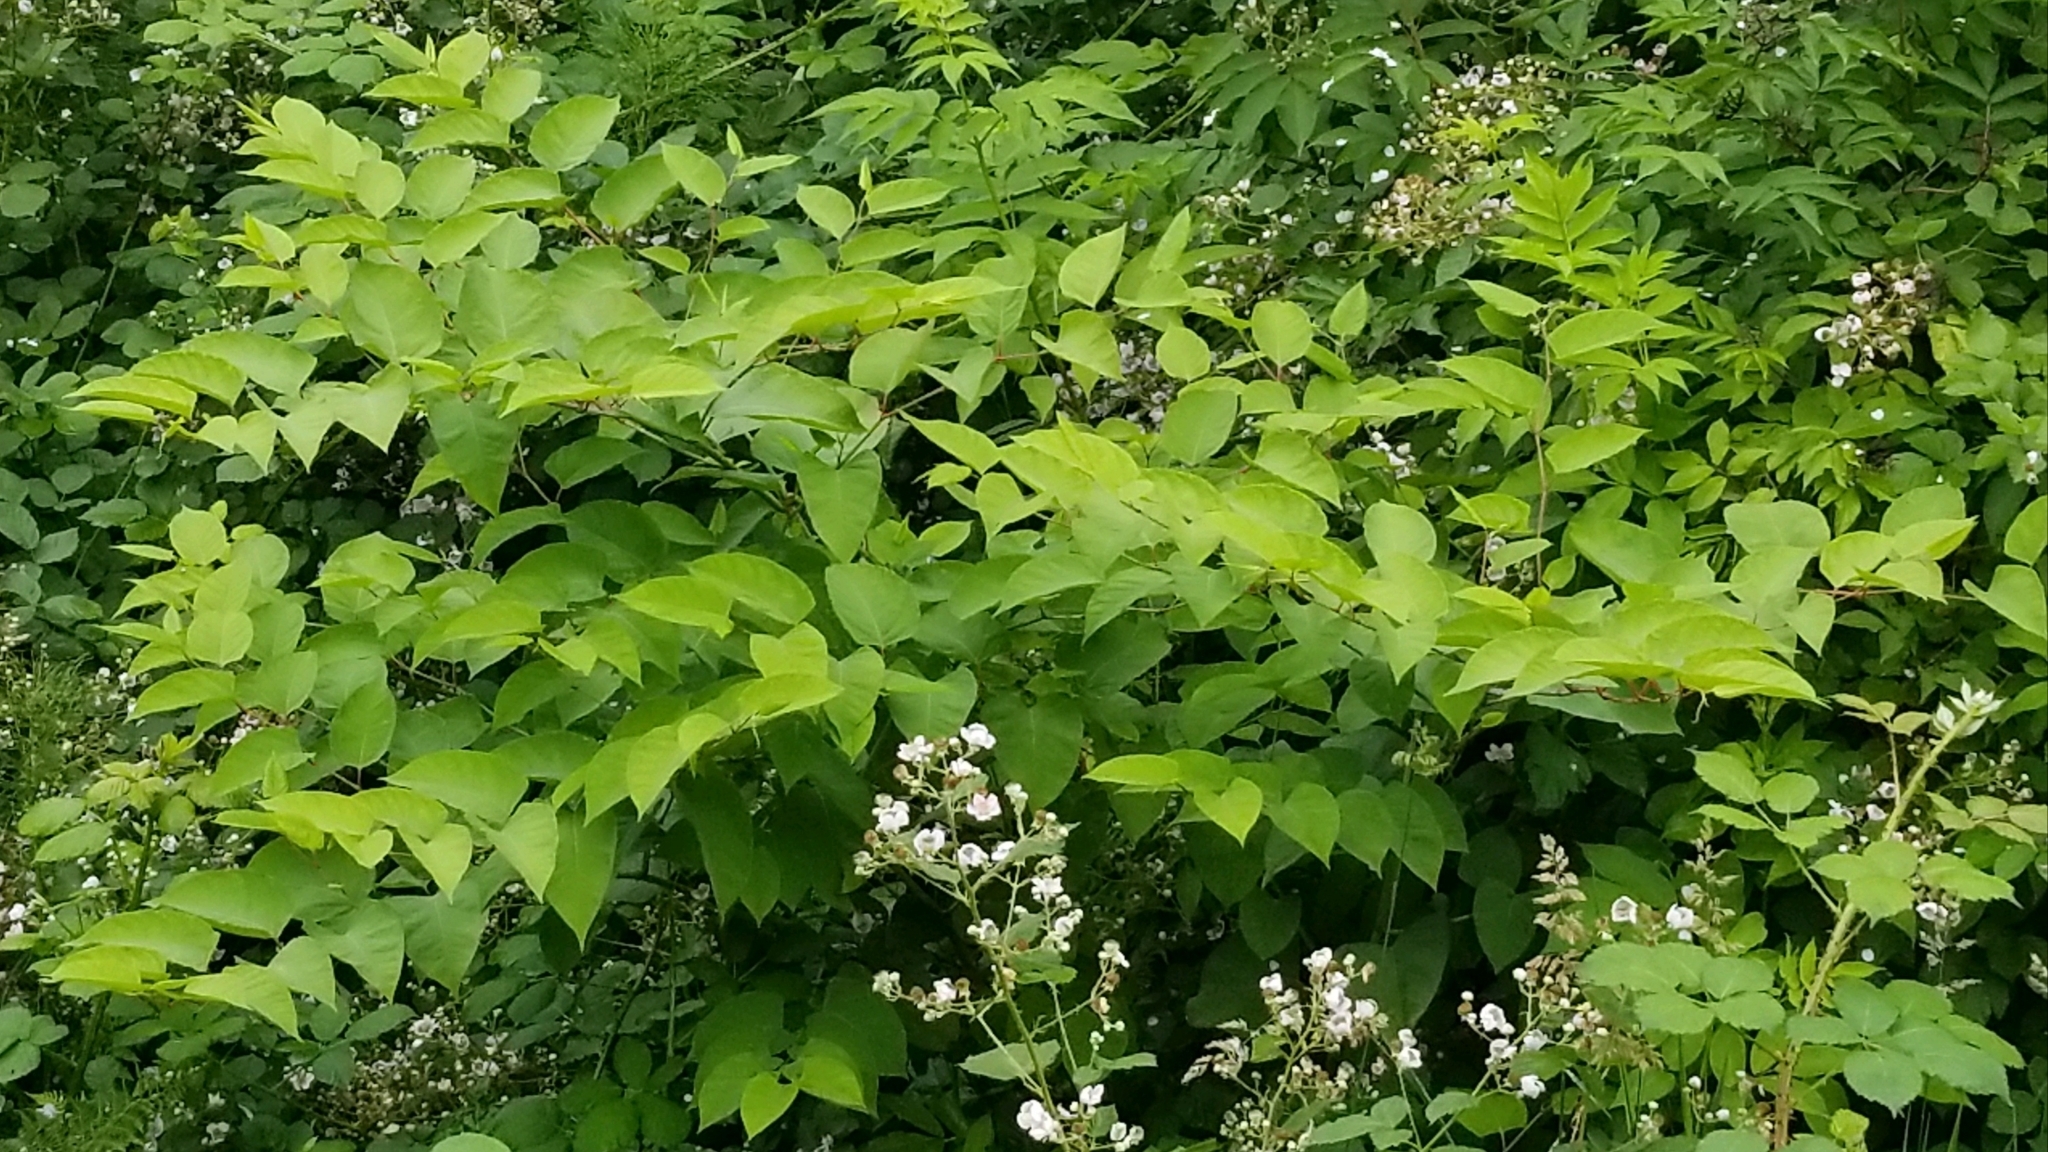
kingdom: Plantae
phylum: Tracheophyta
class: Magnoliopsida
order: Caryophyllales
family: Polygonaceae
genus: Reynoutria
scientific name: Reynoutria bohemica
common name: Bohemian knotweed
